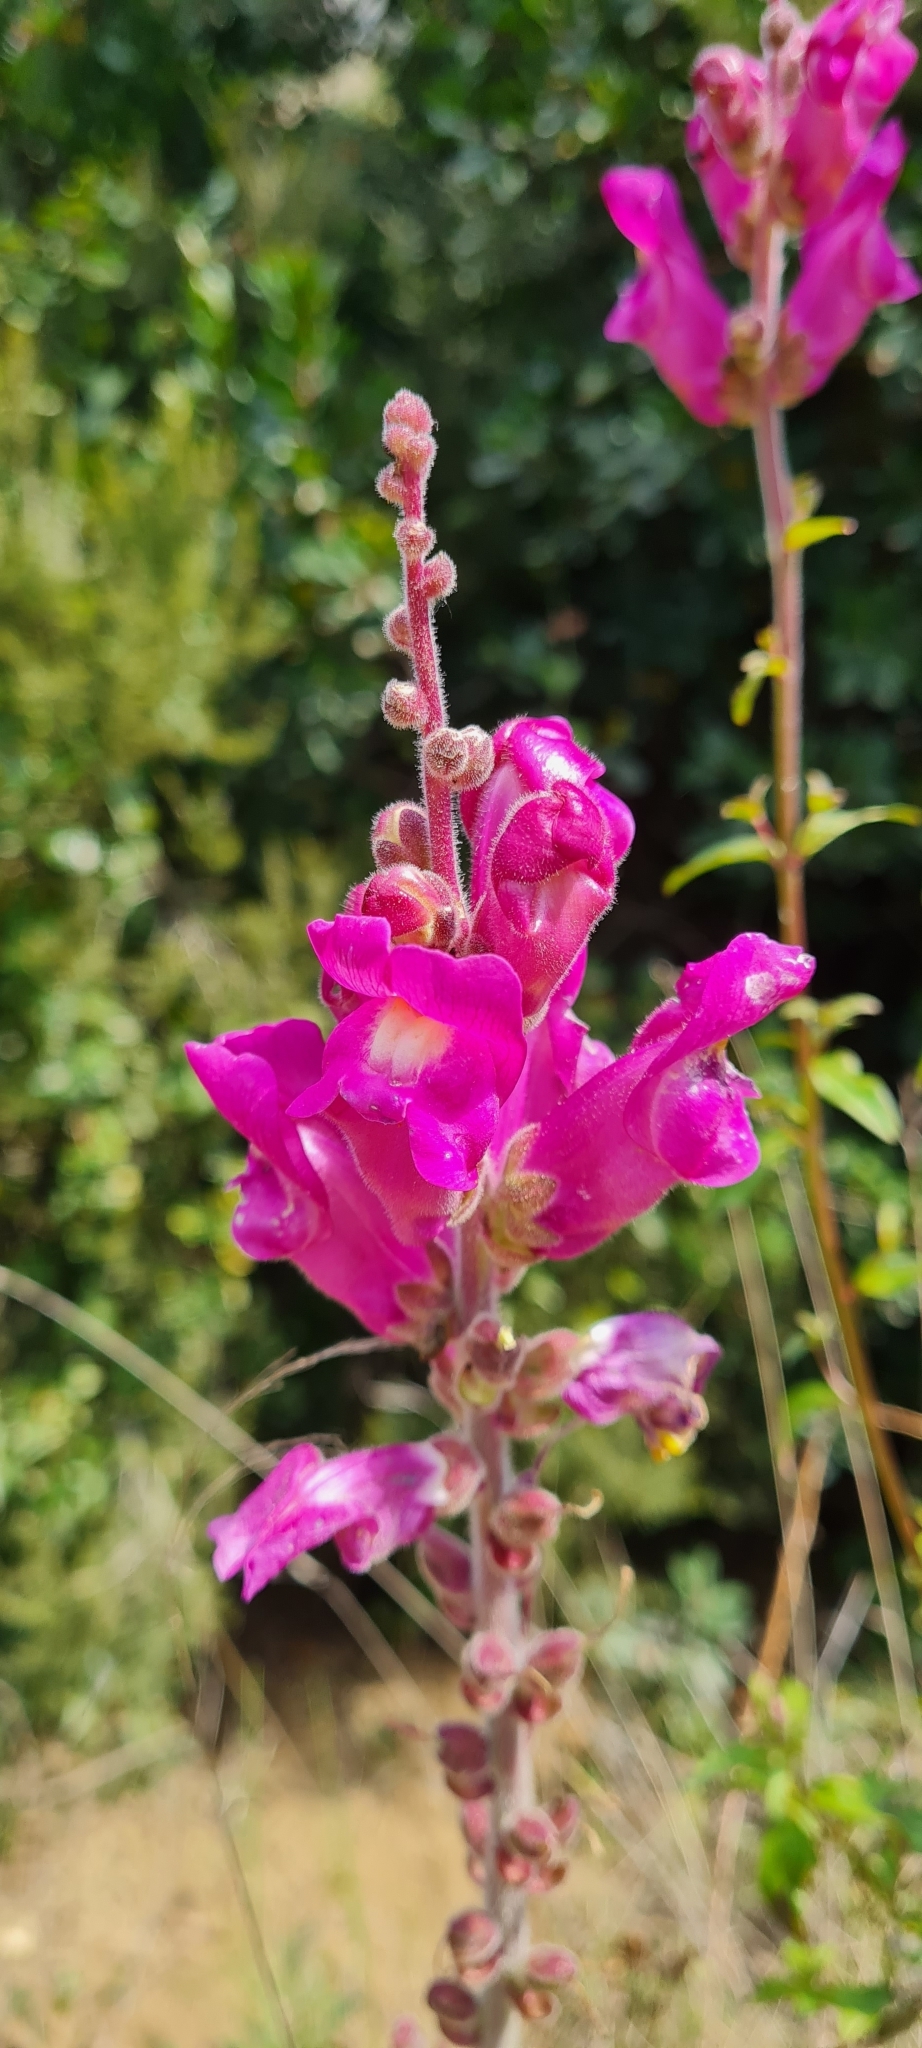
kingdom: Plantae
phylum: Tracheophyta
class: Magnoliopsida
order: Lamiales
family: Plantaginaceae
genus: Antirrhinum
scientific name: Antirrhinum majus
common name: Snapdragon
